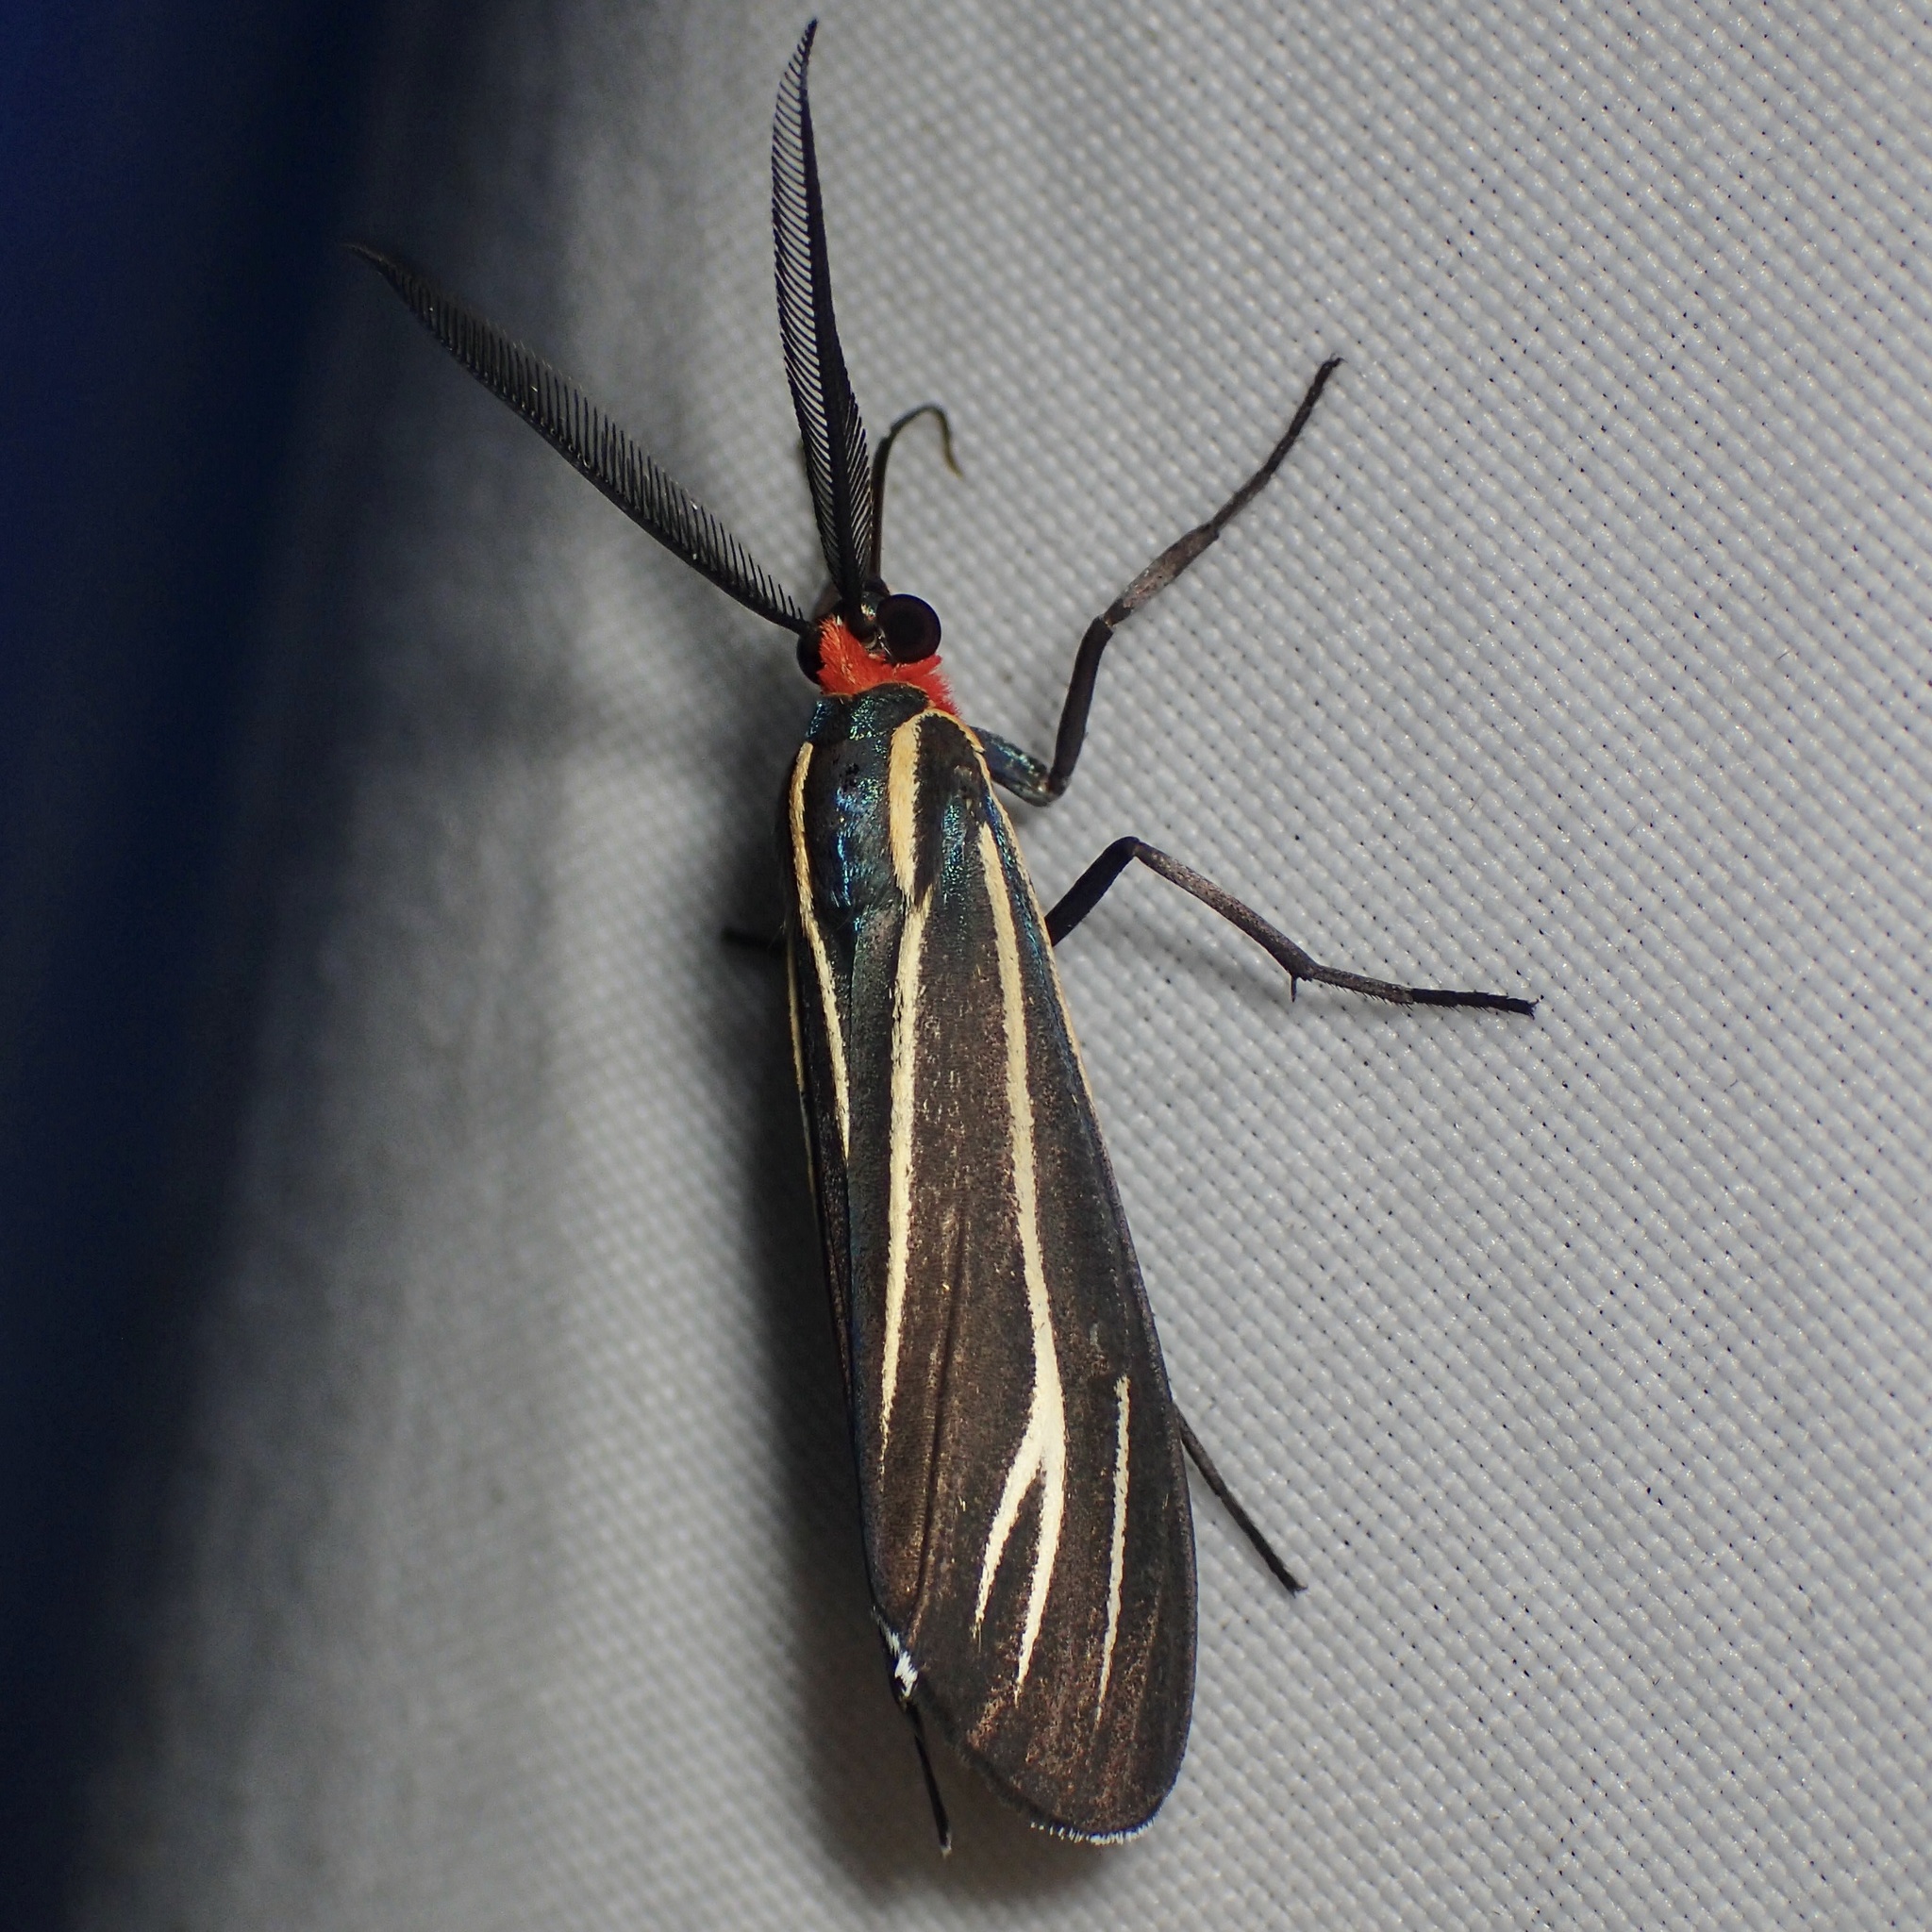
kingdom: Animalia
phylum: Arthropoda
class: Insecta
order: Lepidoptera
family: Erebidae
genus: Ctenucha
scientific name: Ctenucha venosa
